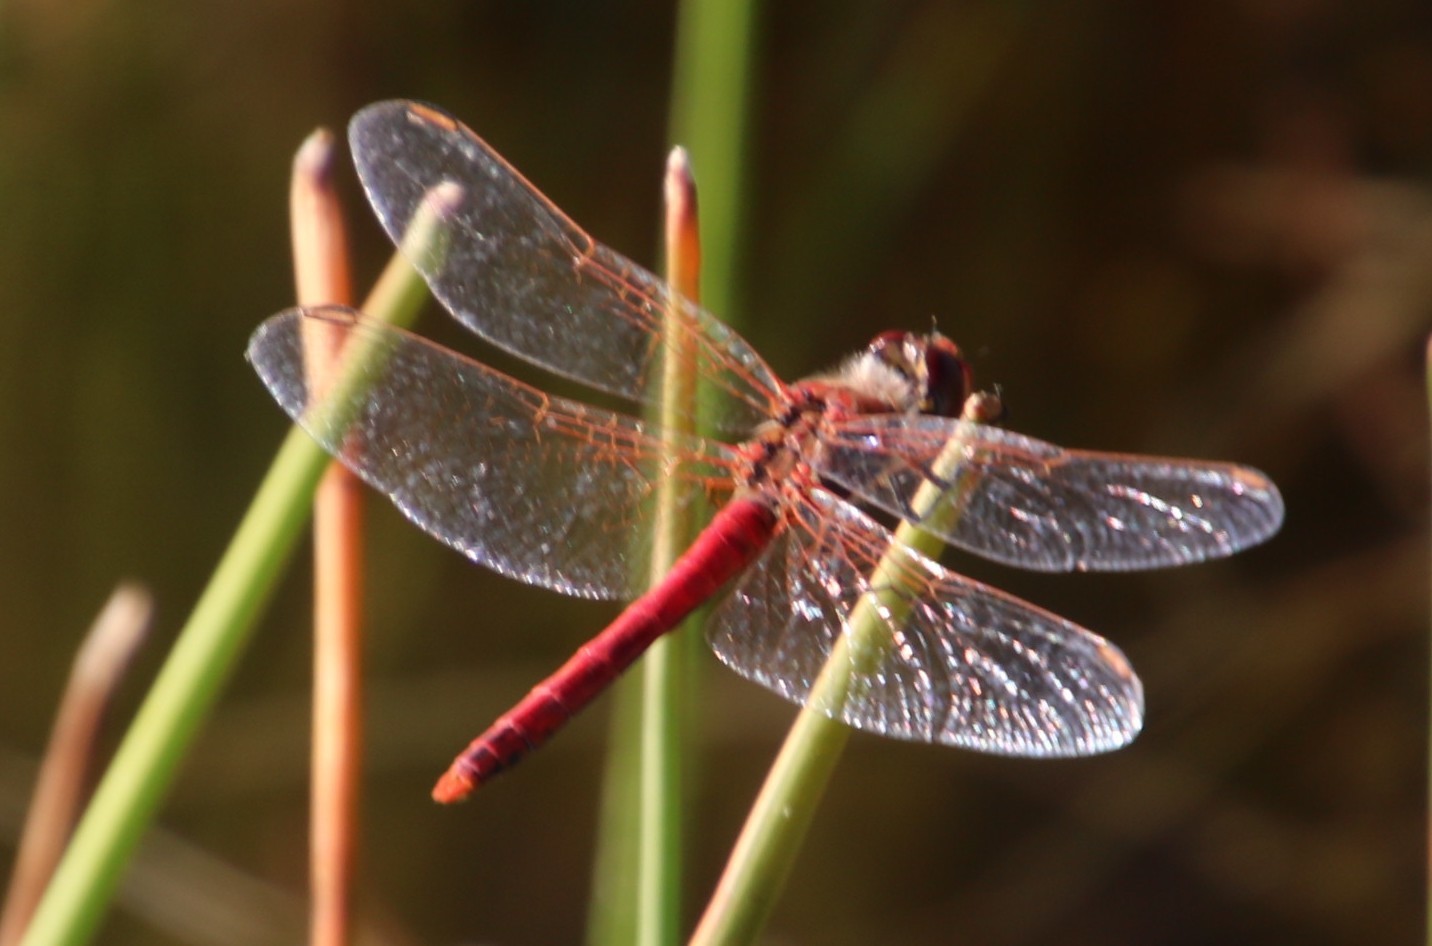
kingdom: Animalia
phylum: Arthropoda
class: Insecta
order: Odonata
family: Libellulidae
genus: Sympetrum
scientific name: Sympetrum fonscolombii
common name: Red-veined darter
